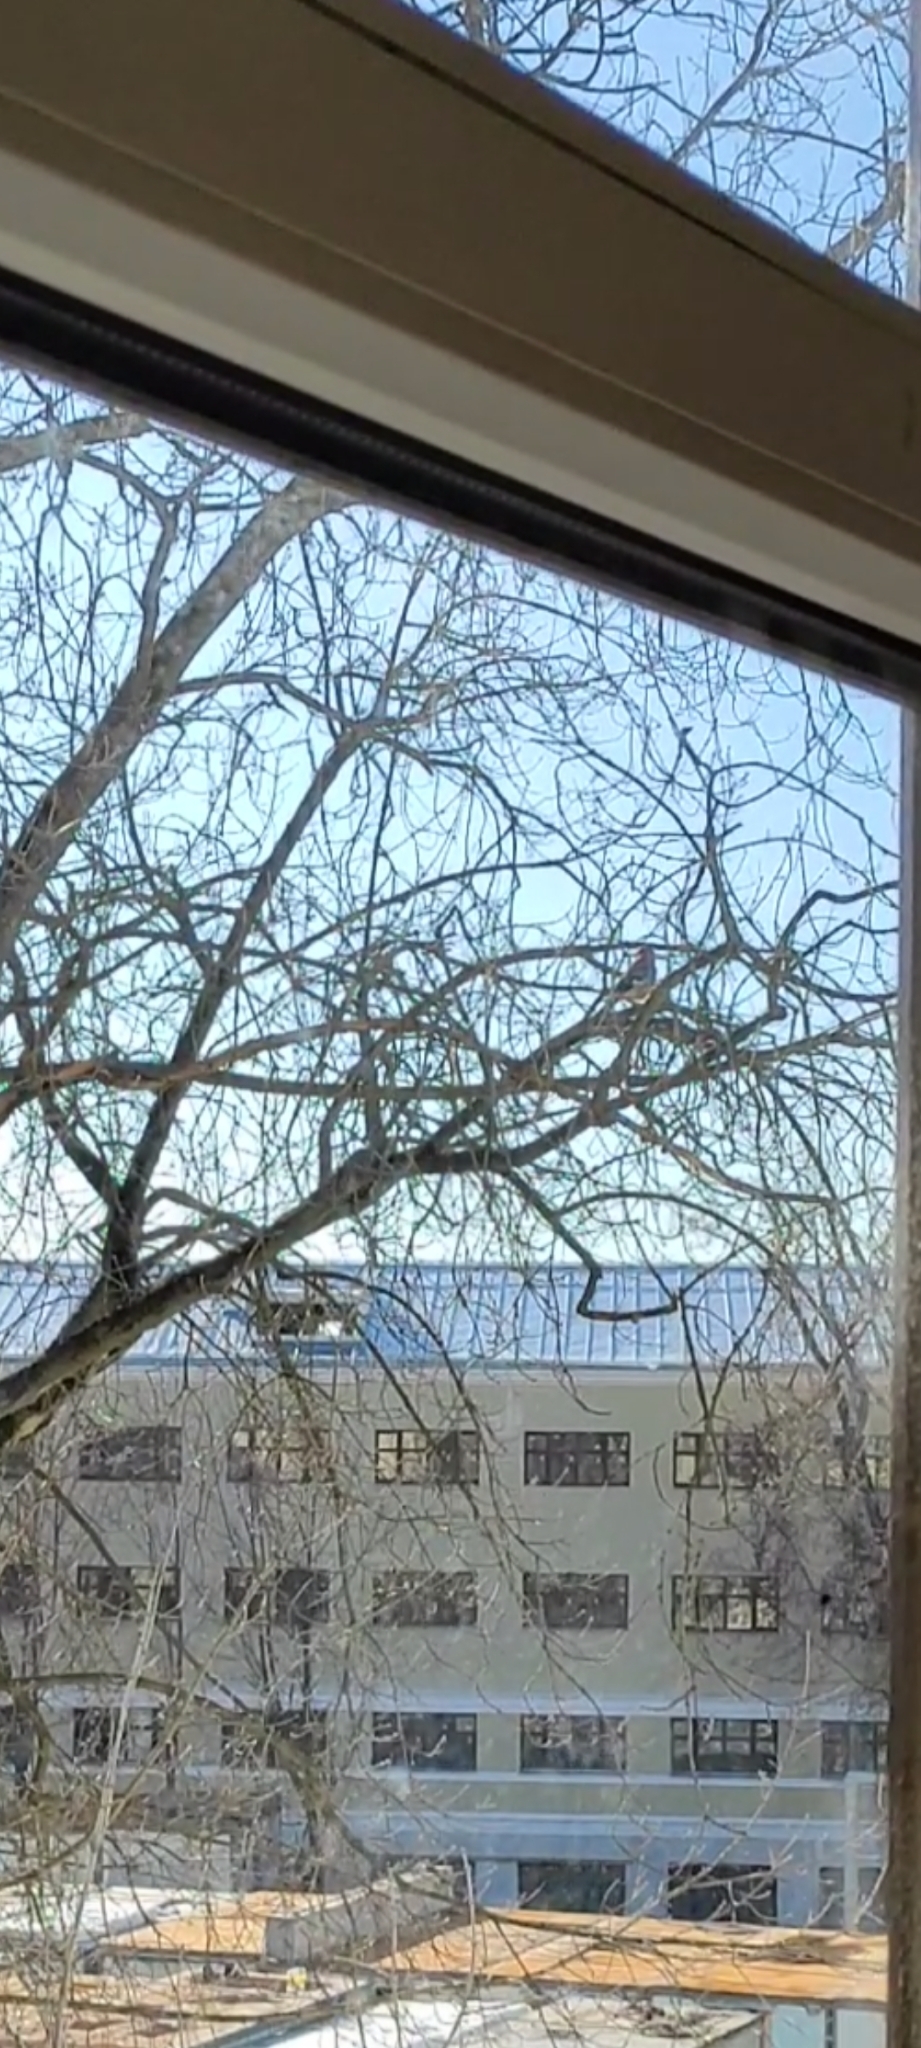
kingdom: Animalia
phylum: Chordata
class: Aves
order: Passeriformes
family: Corvidae
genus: Garrulus
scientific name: Garrulus glandarius
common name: Eurasian jay
